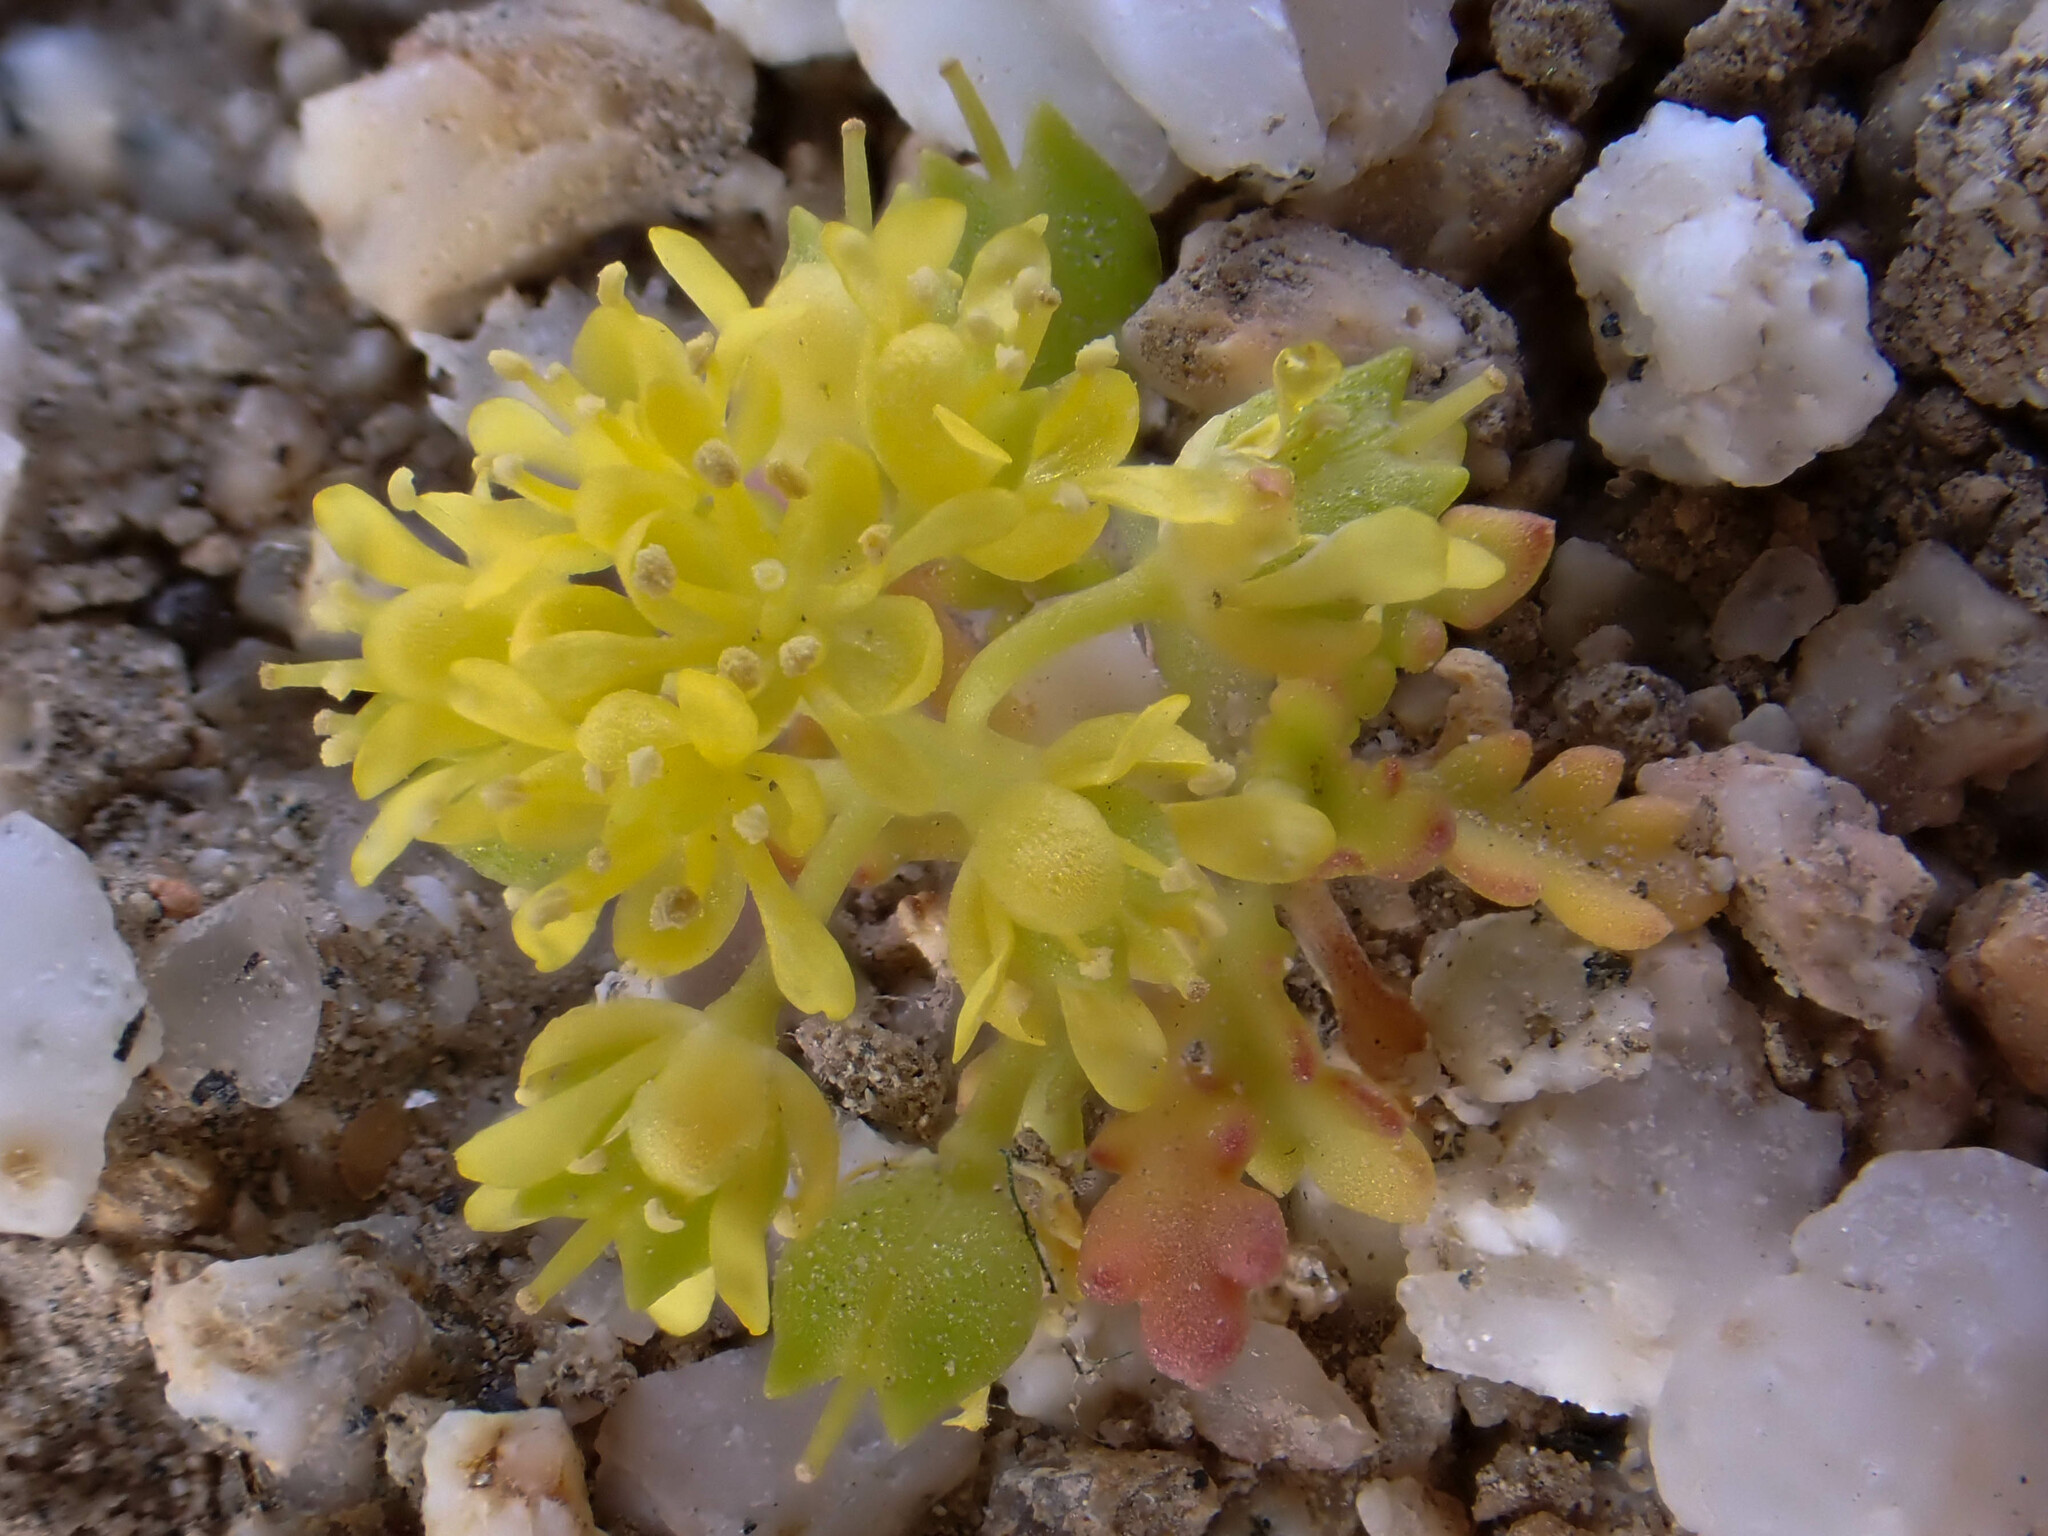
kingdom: Plantae
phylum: Tracheophyta
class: Magnoliopsida
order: Brassicales
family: Brassicaceae
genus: Lepidium
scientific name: Lepidium flavum
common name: Yellow pepperwort
